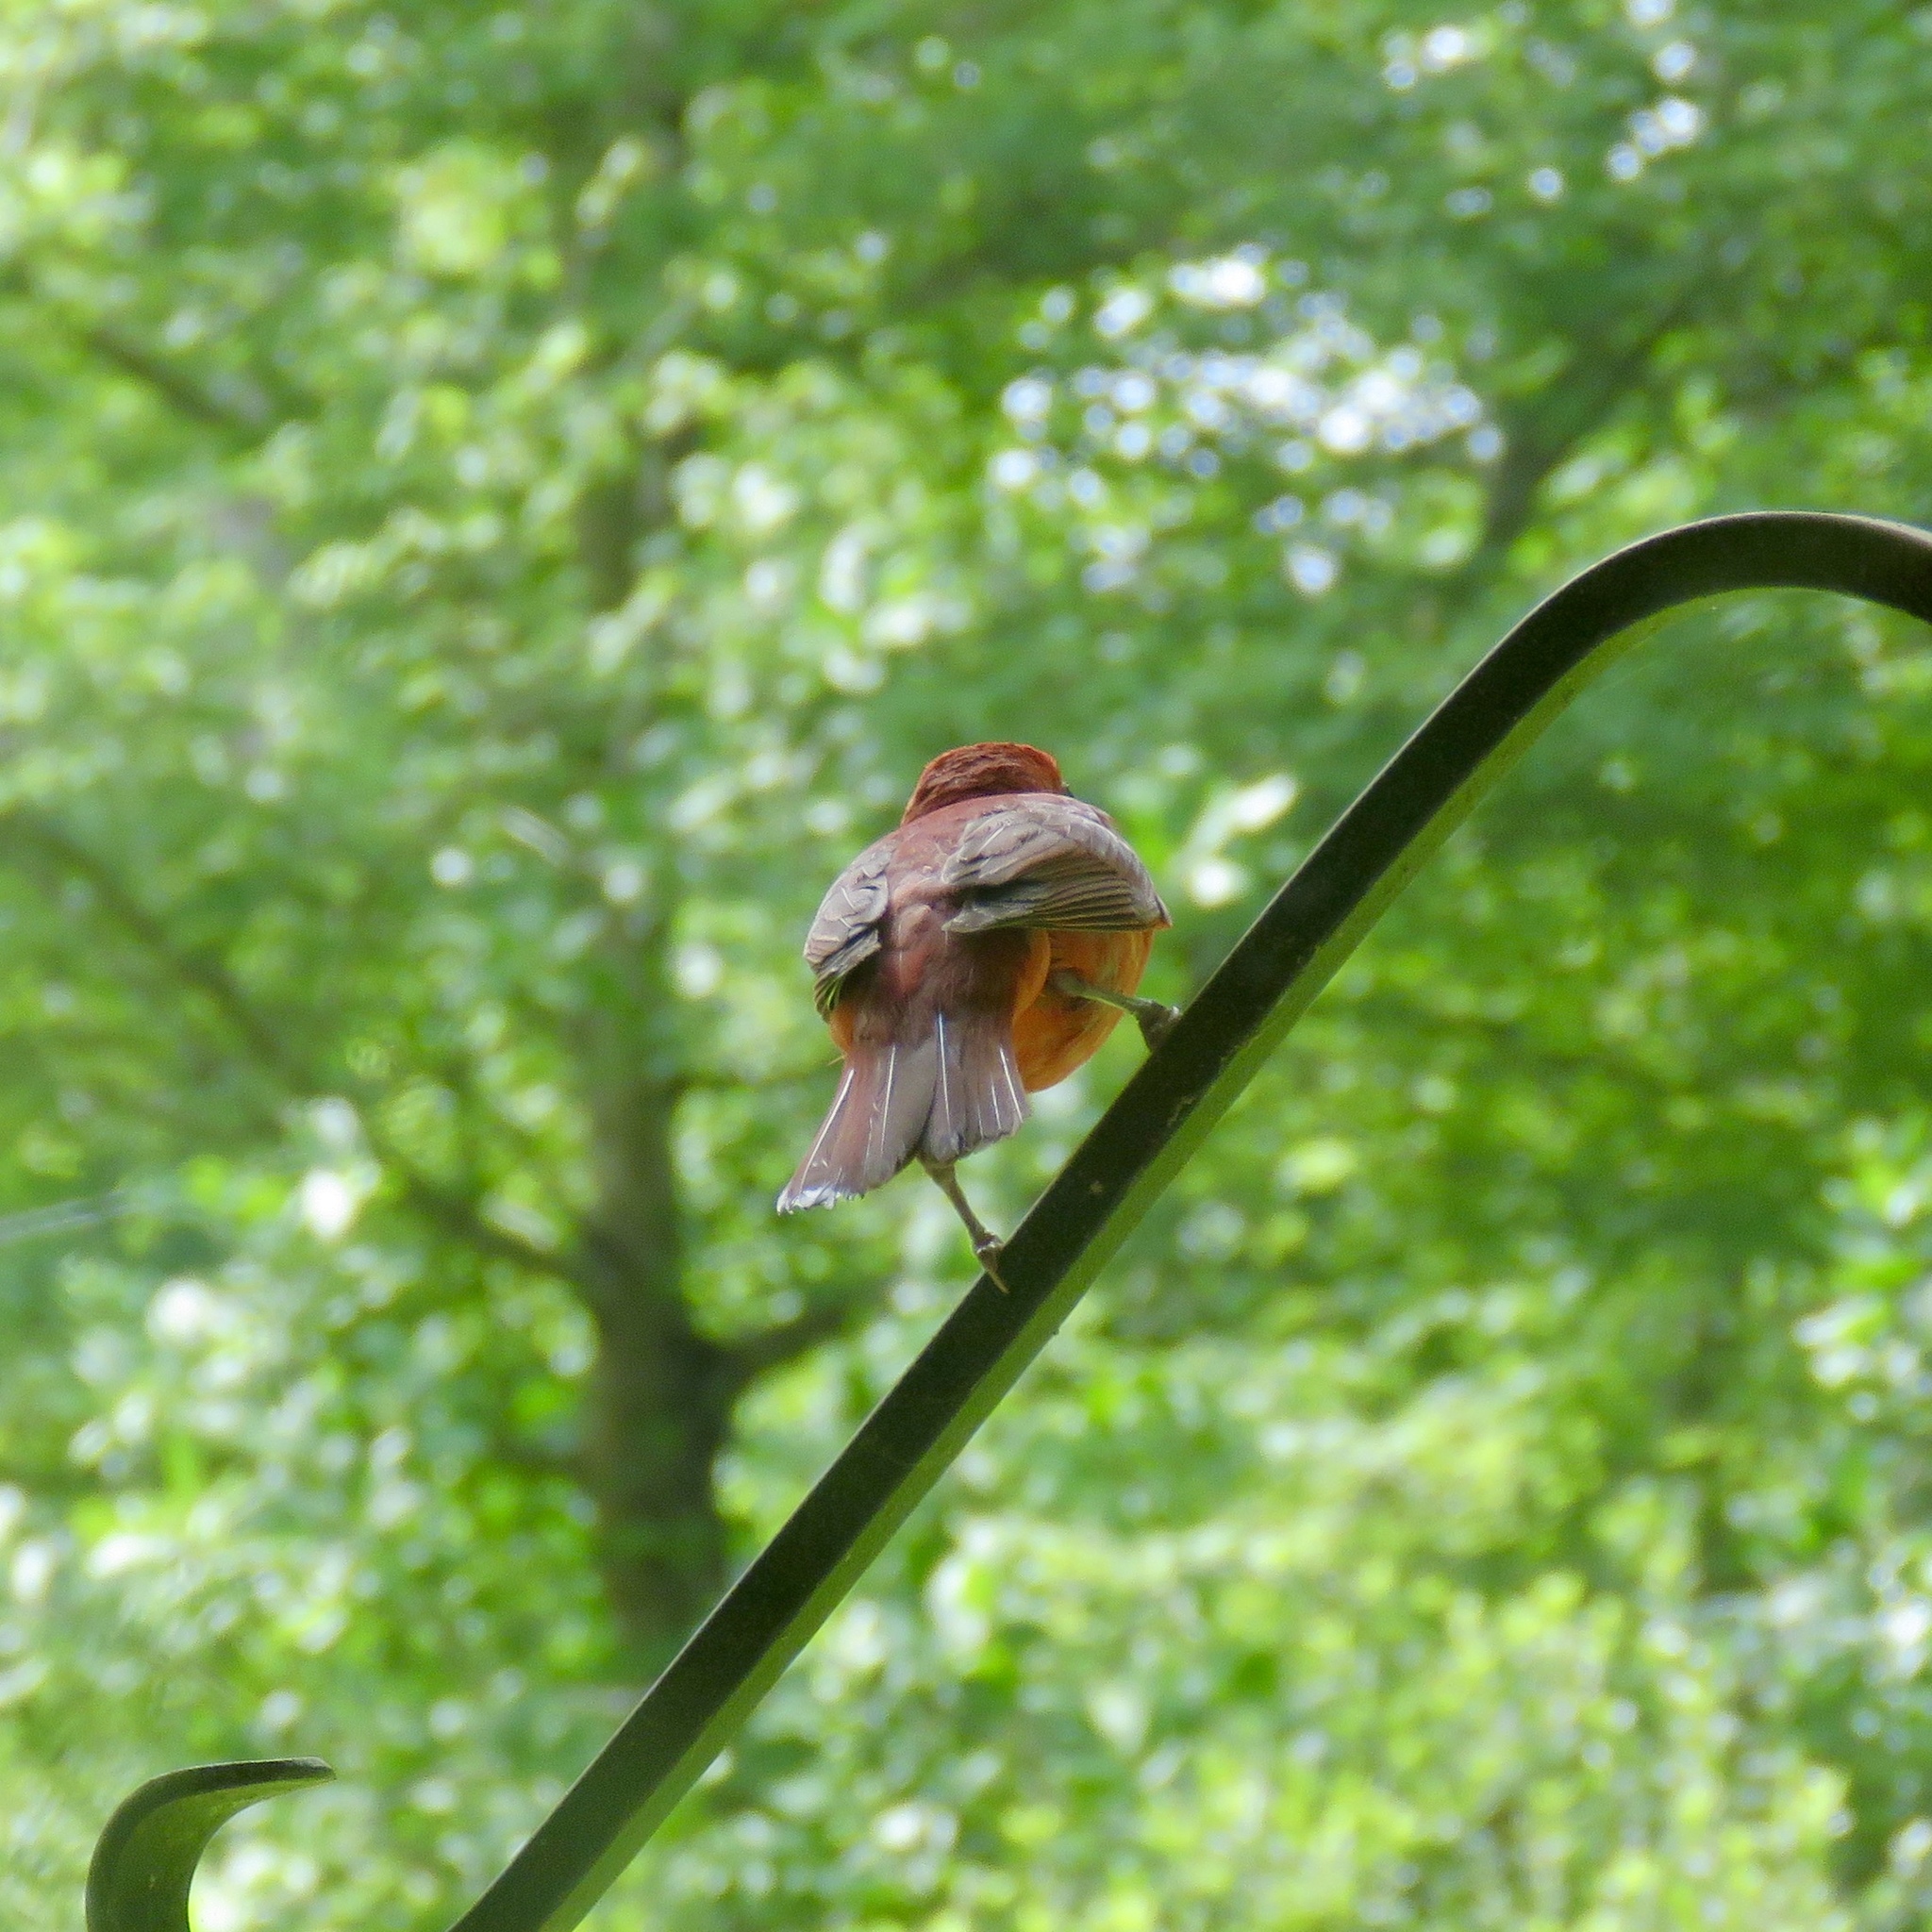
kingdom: Animalia
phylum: Chordata
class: Aves
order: Passeriformes
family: Cardinalidae
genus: Piranga
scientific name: Piranga rubra
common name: Summer tanager
